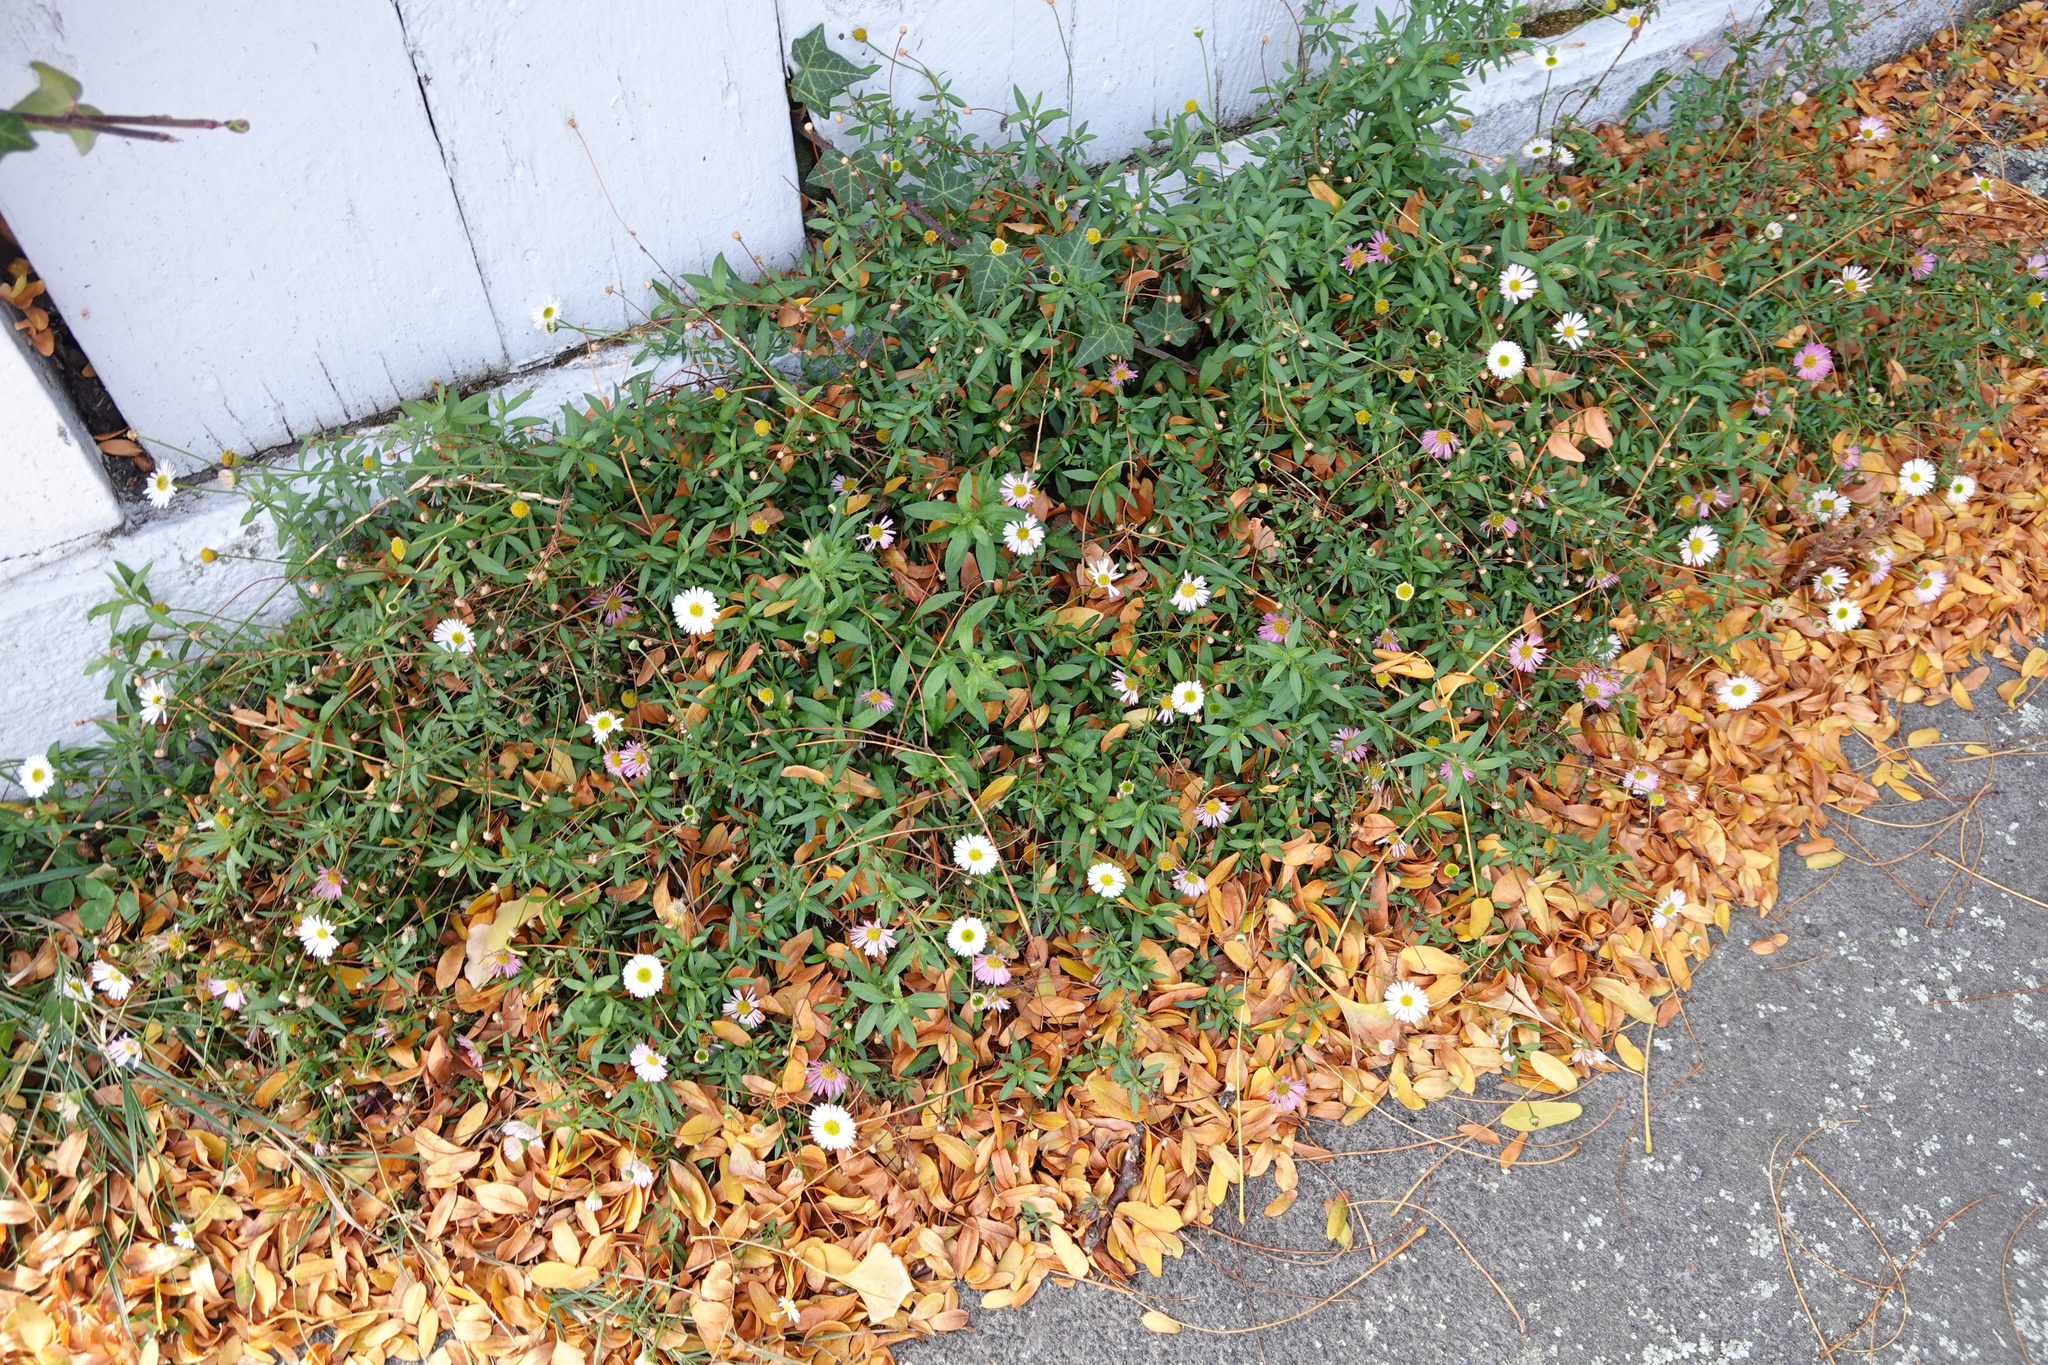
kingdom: Plantae
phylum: Tracheophyta
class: Magnoliopsida
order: Asterales
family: Asteraceae
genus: Erigeron
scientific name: Erigeron karvinskianus
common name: Mexican fleabane
